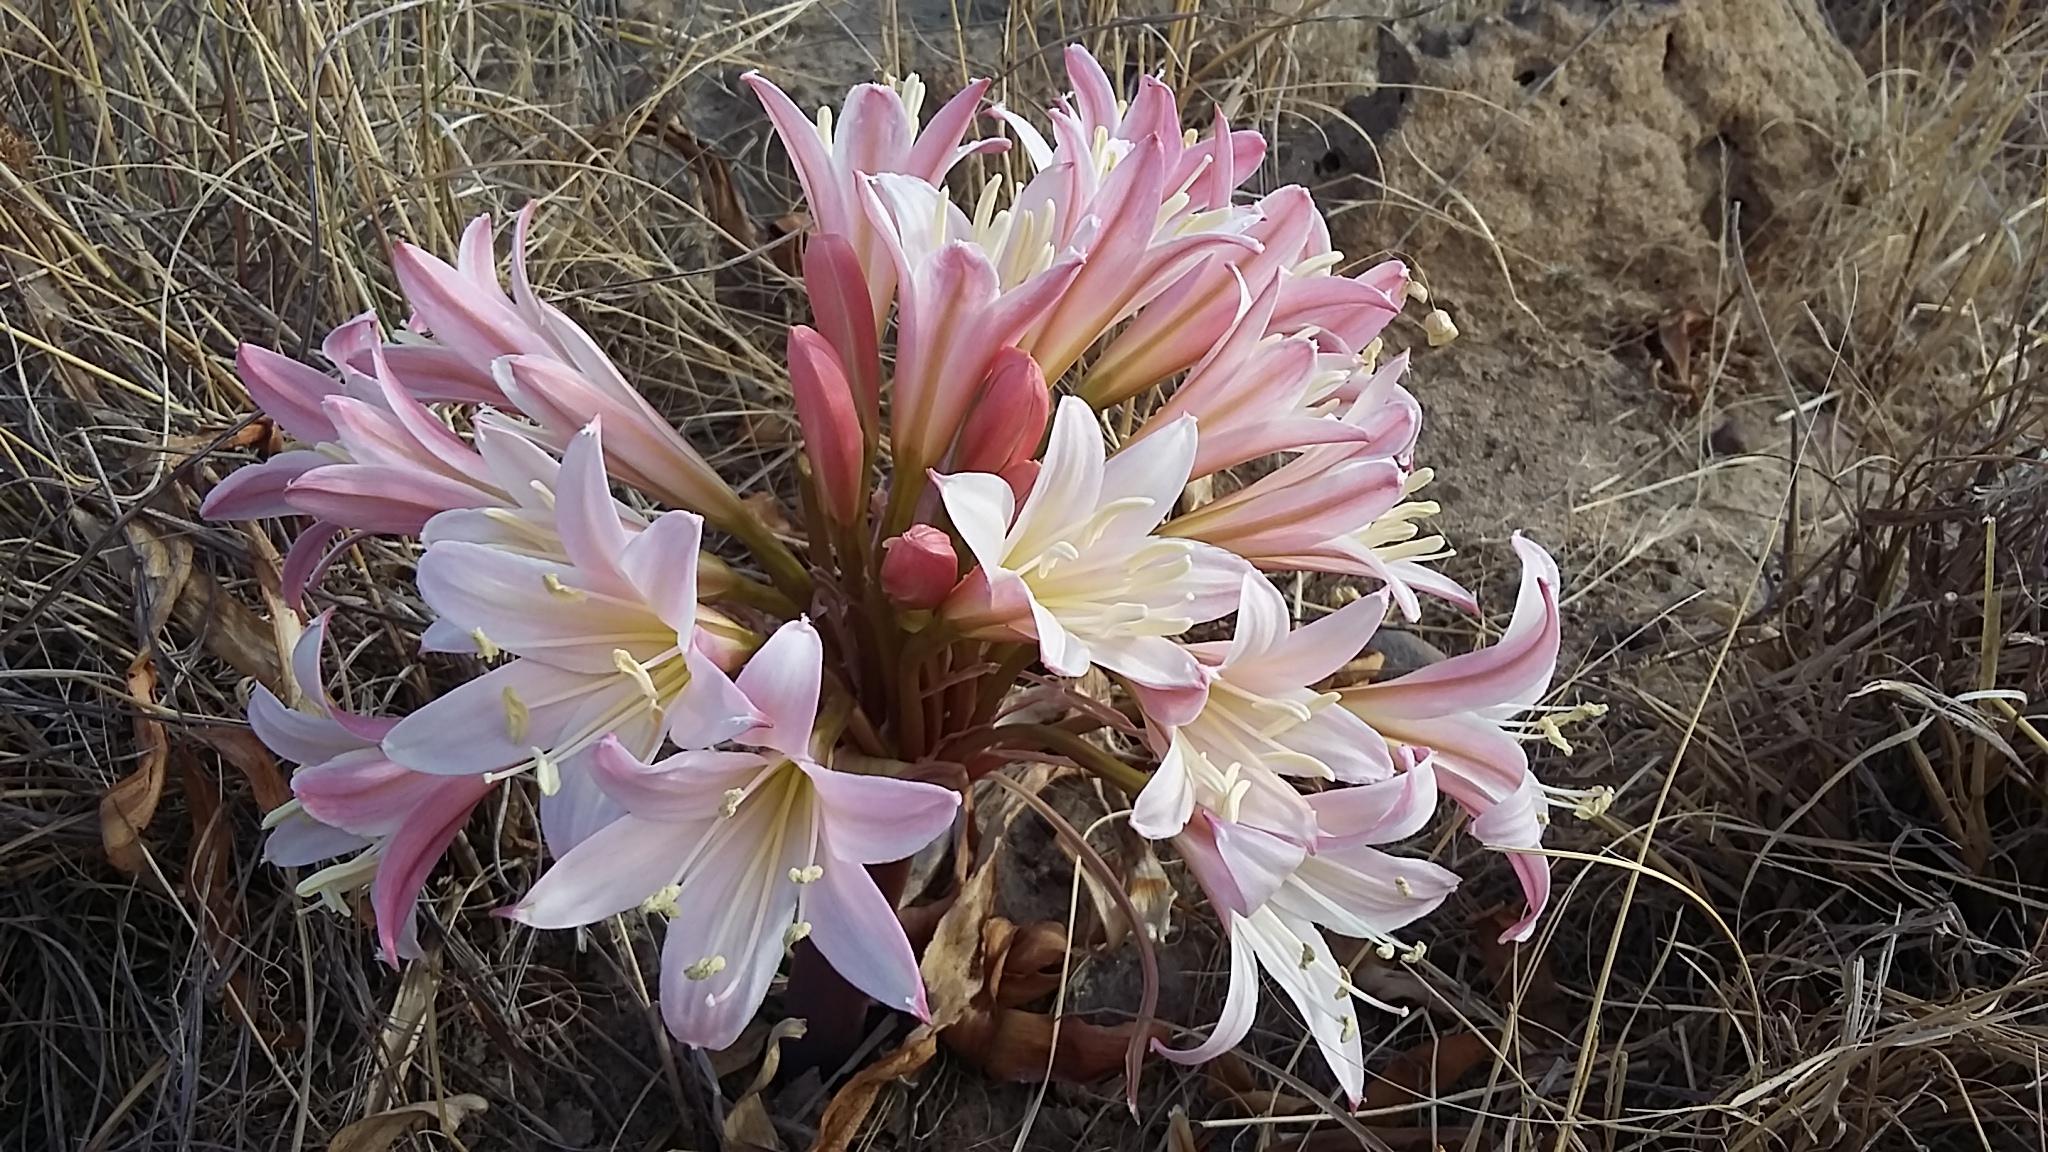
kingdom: Plantae
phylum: Tracheophyta
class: Liliopsida
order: Asparagales
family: Amaryllidaceae
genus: Ammocharis
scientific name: Ammocharis longifolia
